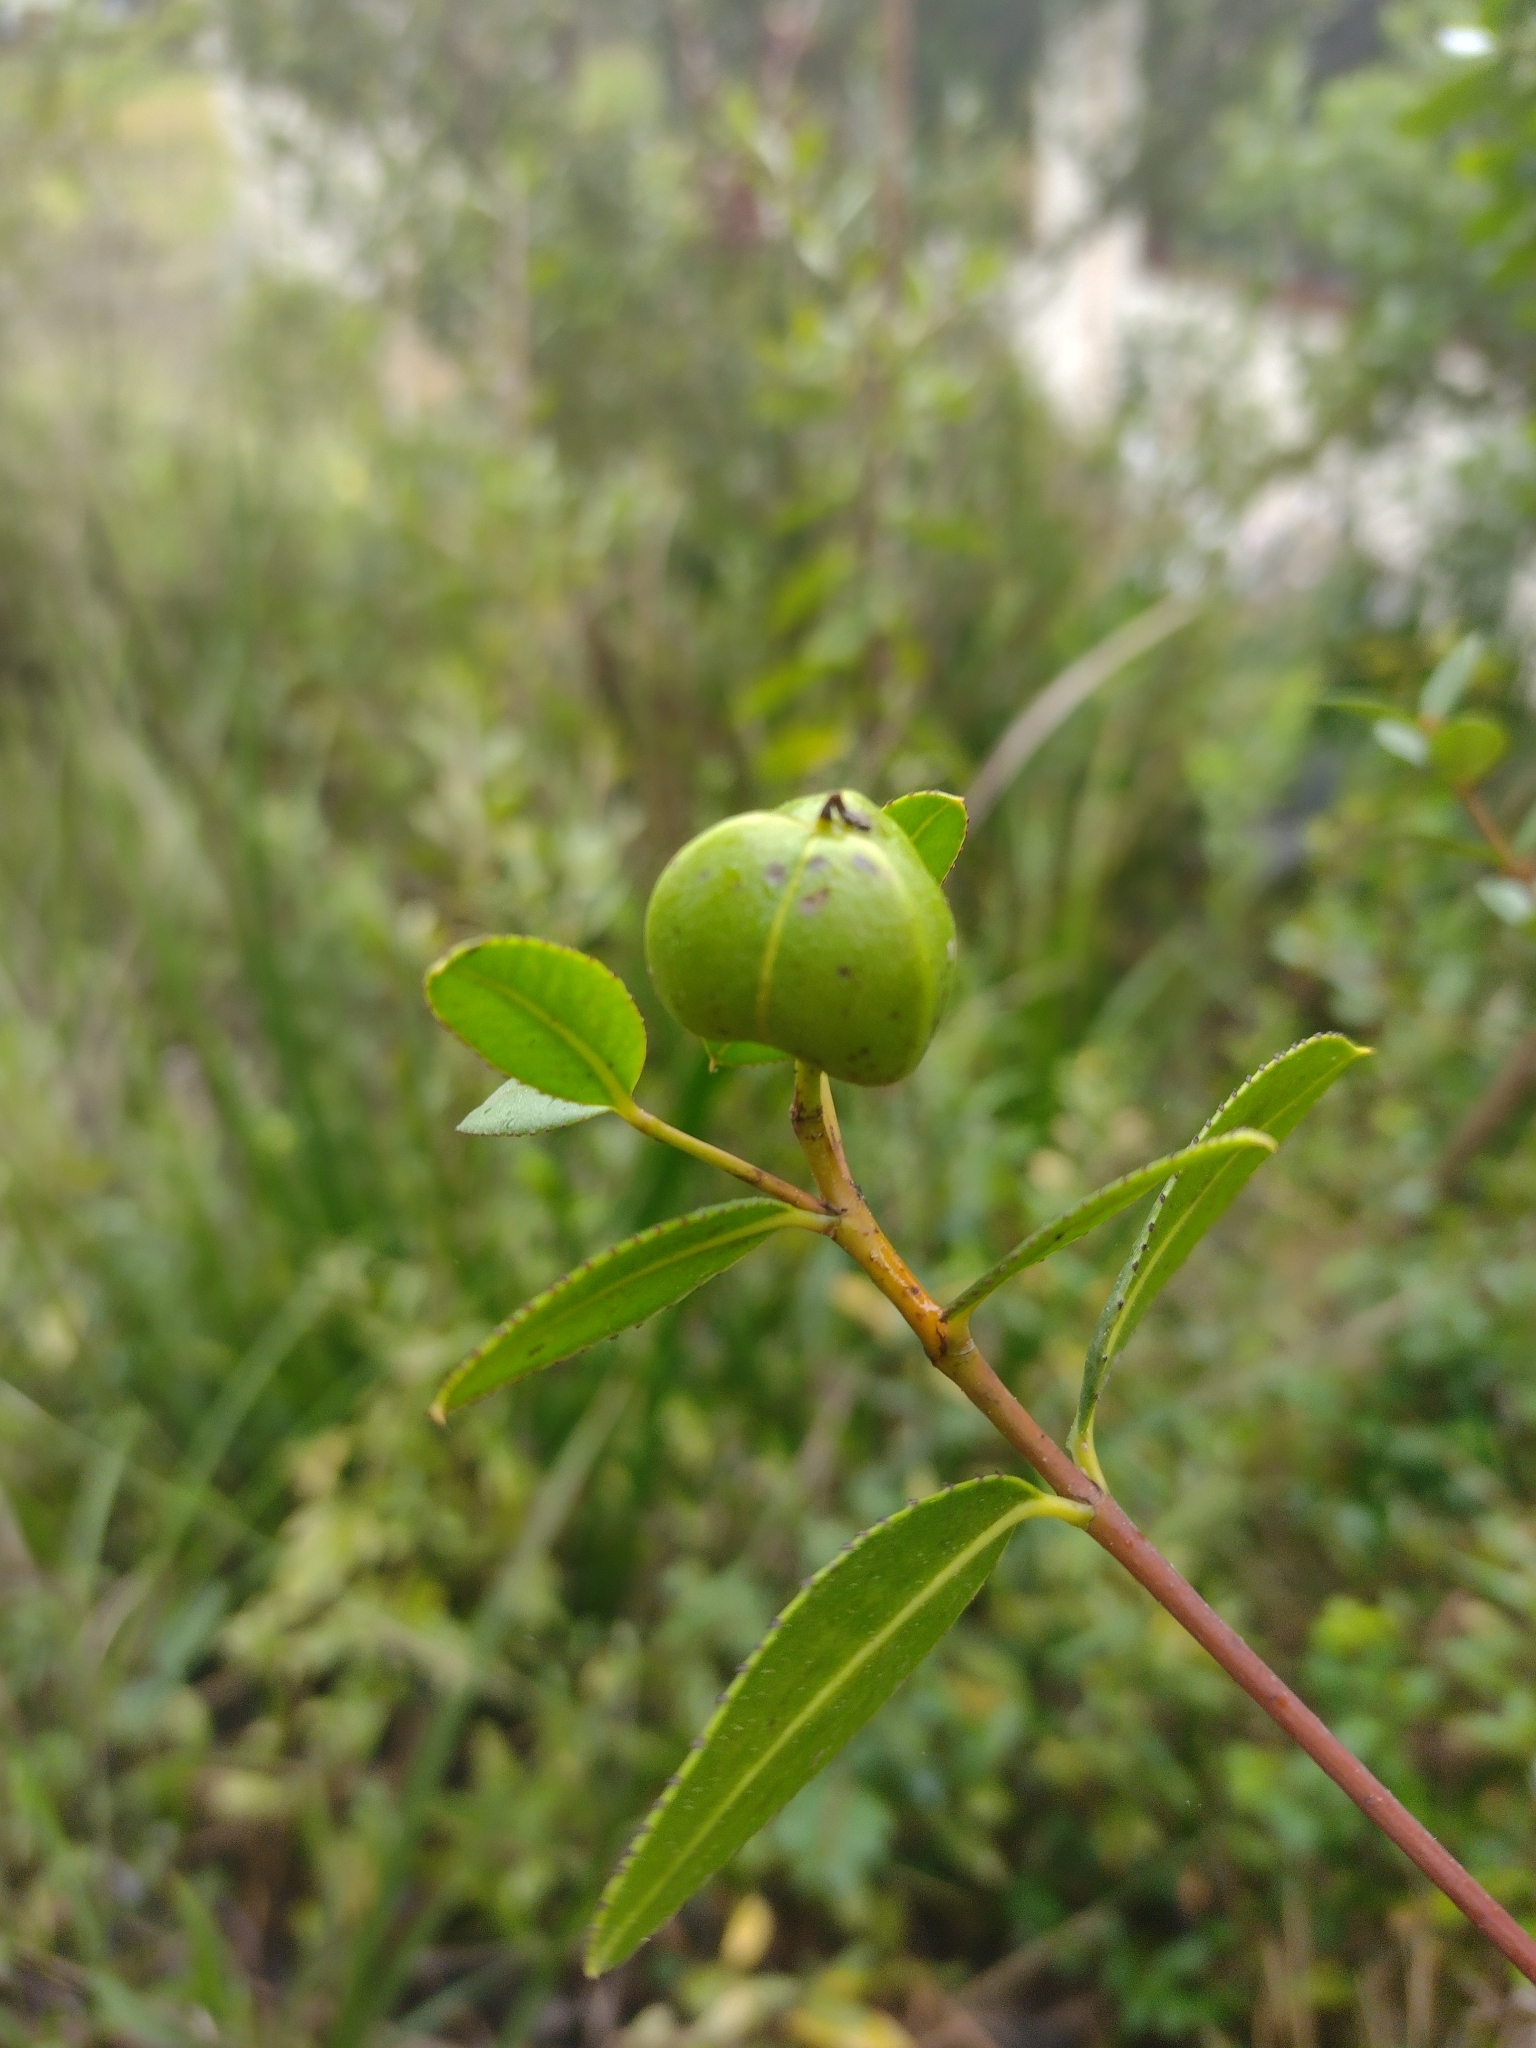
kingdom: Plantae
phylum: Tracheophyta
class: Magnoliopsida
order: Malpighiales
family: Euphorbiaceae
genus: Colliguaja
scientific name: Colliguaja odorifera
